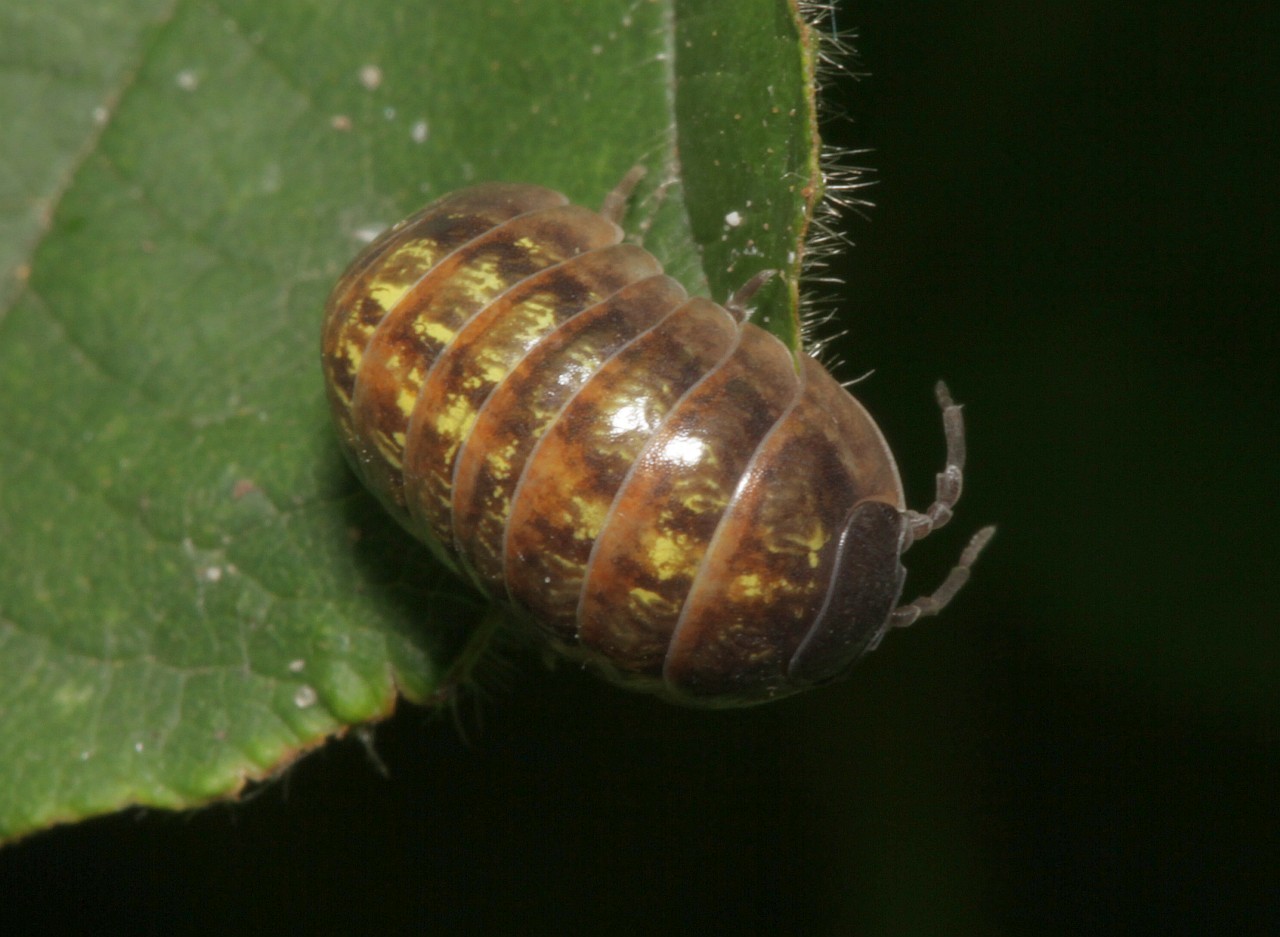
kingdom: Animalia
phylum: Arthropoda
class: Malacostraca
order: Isopoda
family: Armadillidiidae
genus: Armadillidium
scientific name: Armadillidium vulgare
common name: Common pill woodlouse
